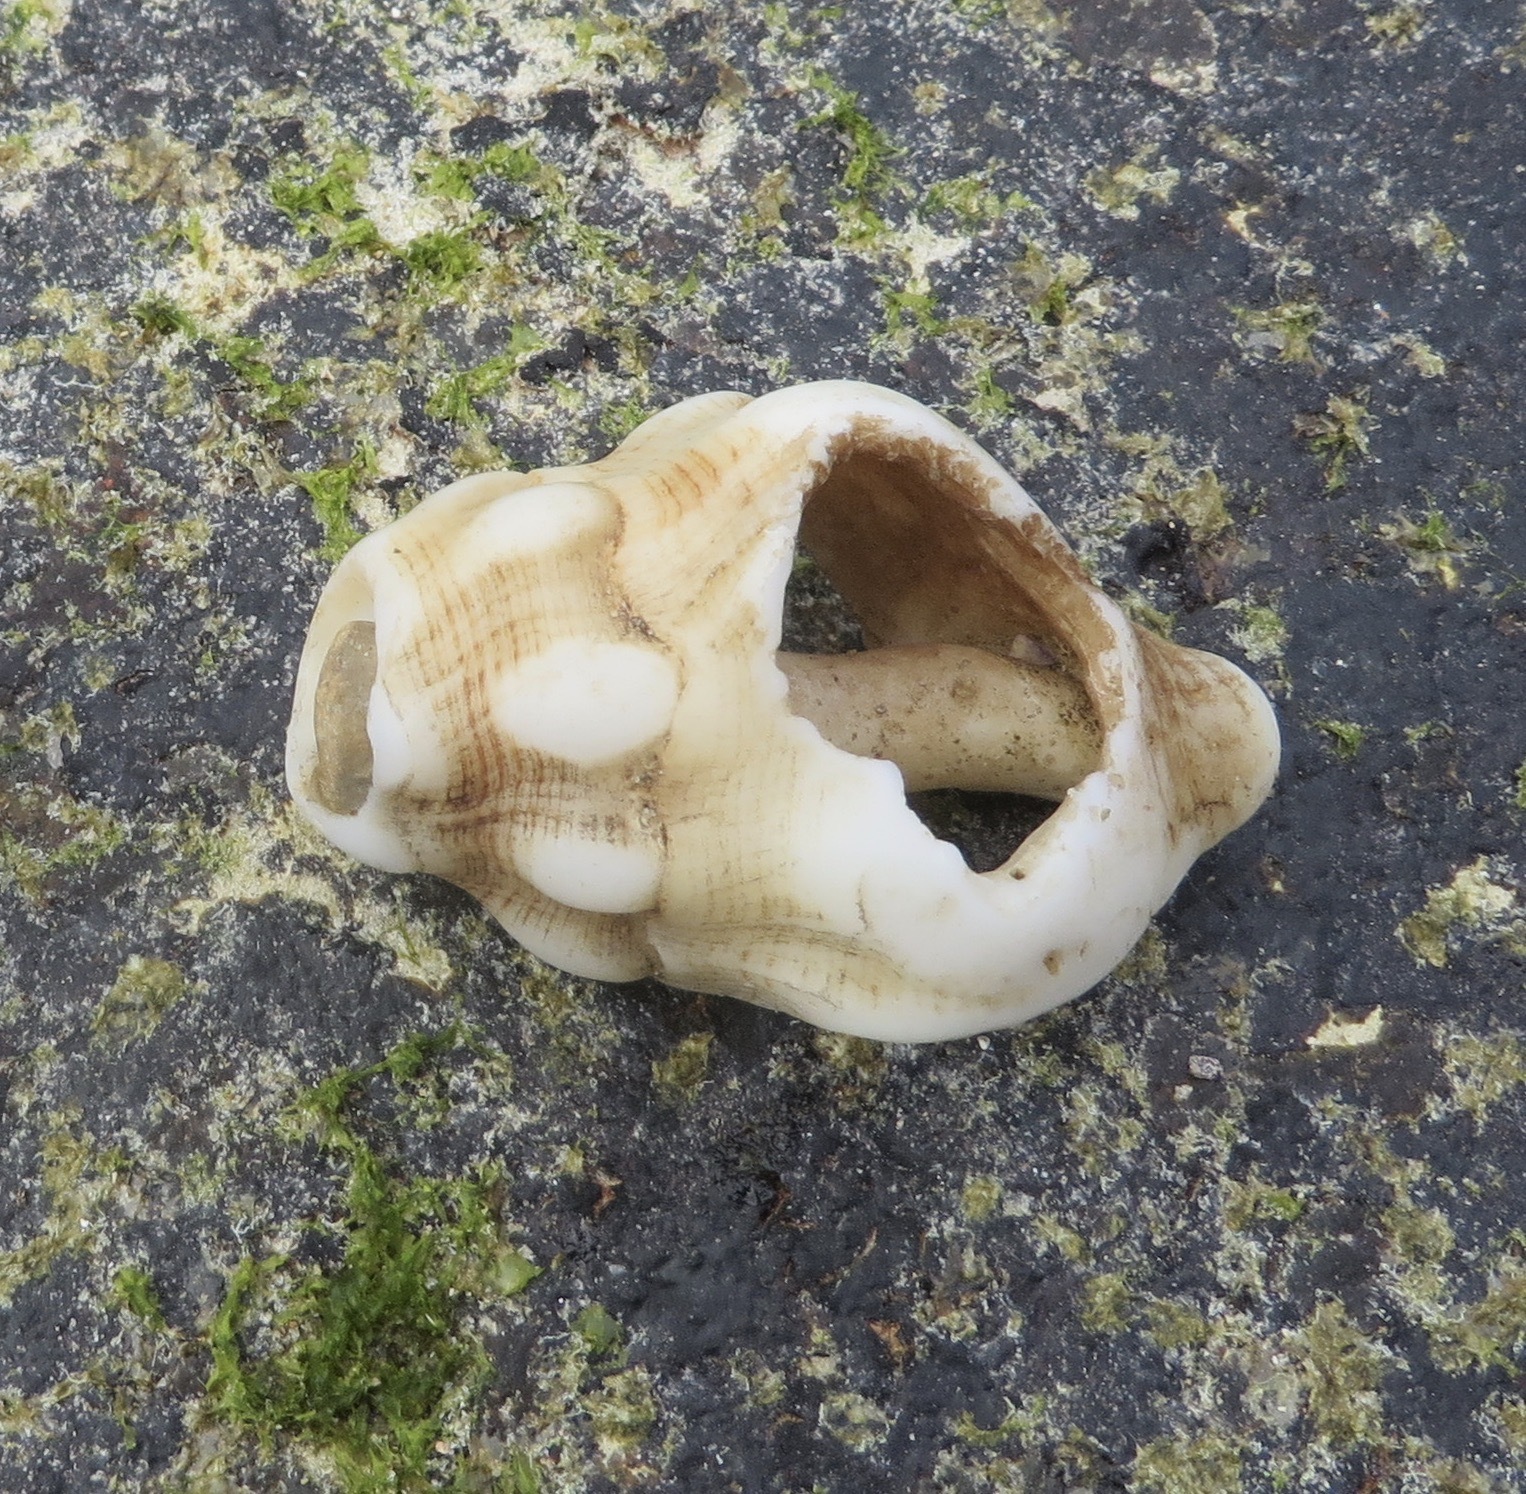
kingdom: Animalia
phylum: Mollusca
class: Gastropoda
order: Neogastropoda
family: Austrosiphonidae
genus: Kelletia
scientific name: Kelletia kelletii
